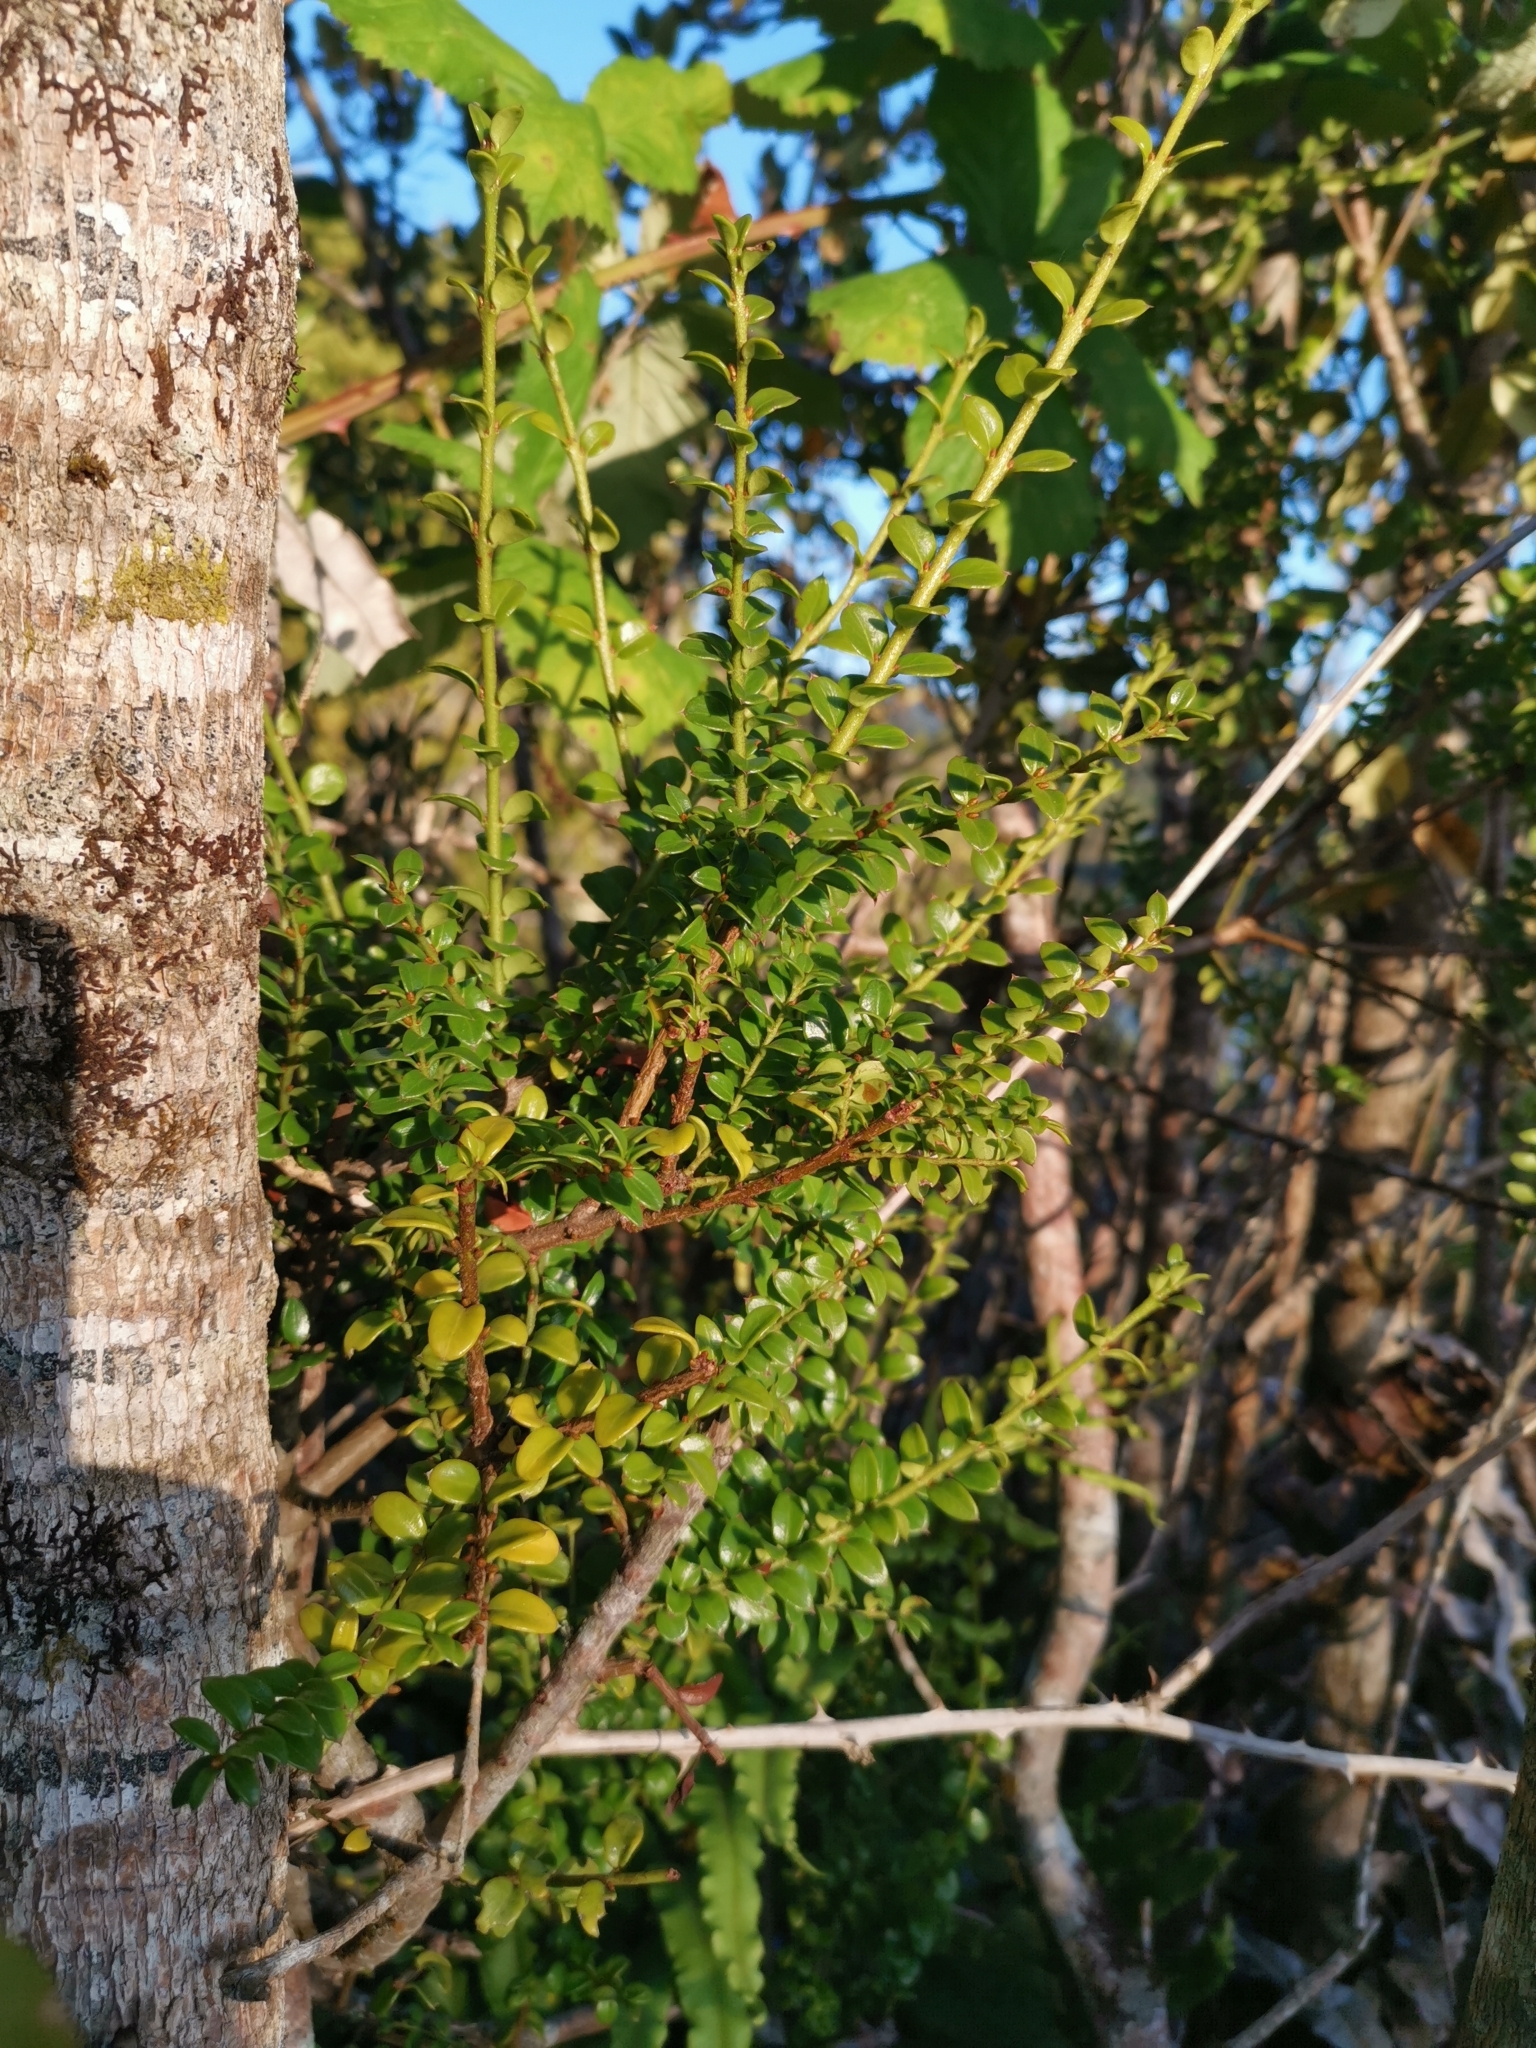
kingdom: Plantae
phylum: Tracheophyta
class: Magnoliopsida
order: Santalales
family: Santalaceae
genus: Lepidoceras
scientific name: Lepidoceras chilense
